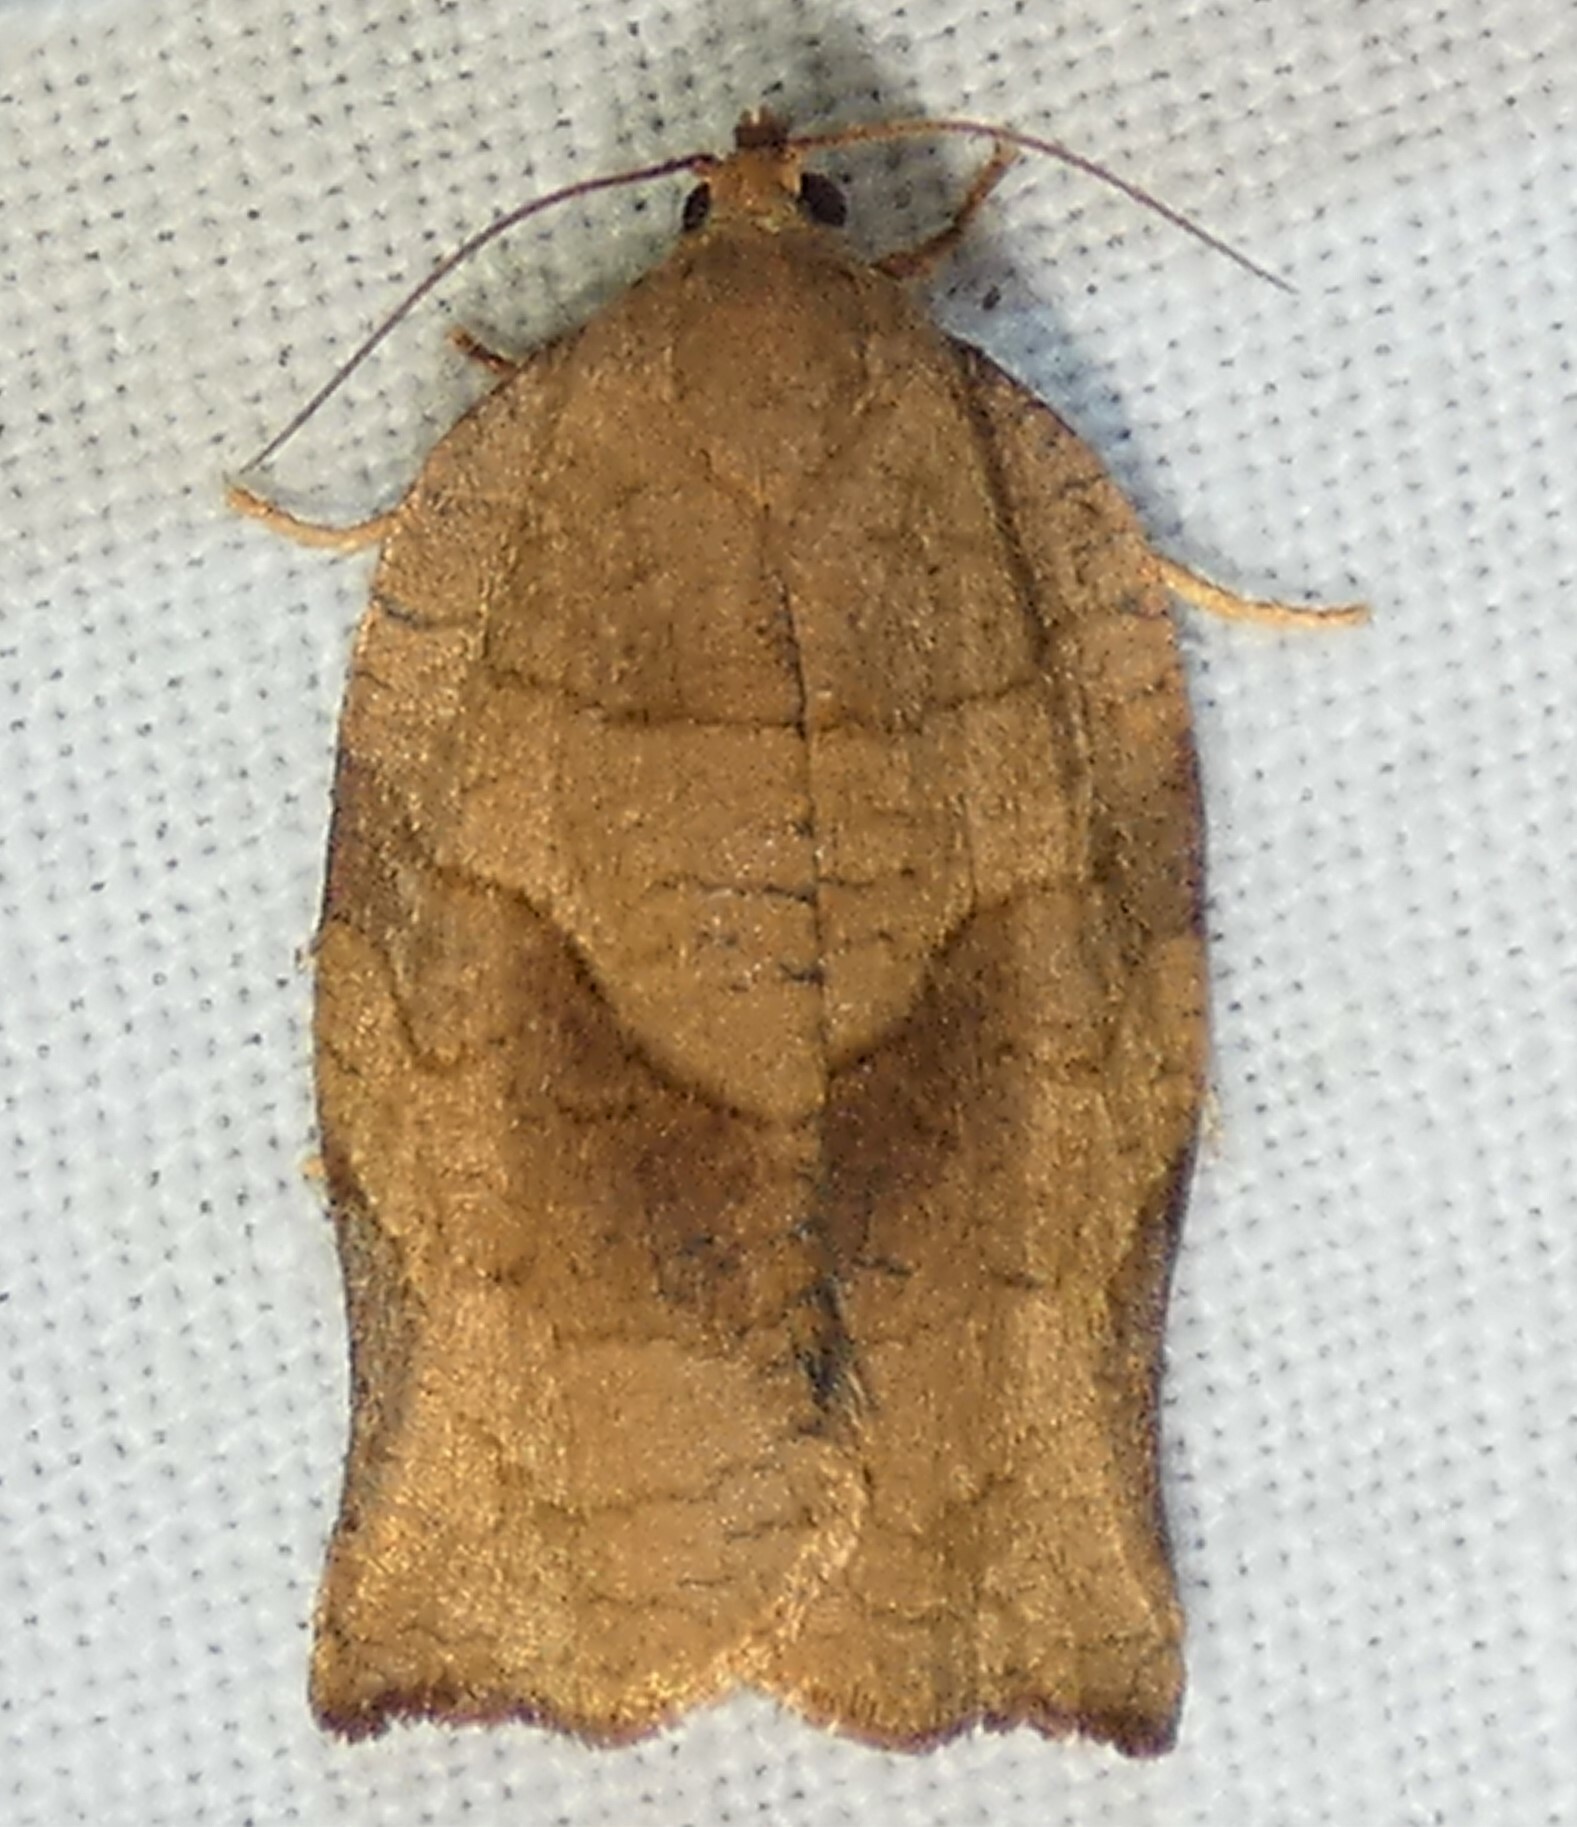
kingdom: Animalia
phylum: Arthropoda
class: Insecta
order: Lepidoptera
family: Tortricidae
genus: Choristoneura
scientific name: Choristoneura rosaceana
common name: Oblique-banded leafroller moth
